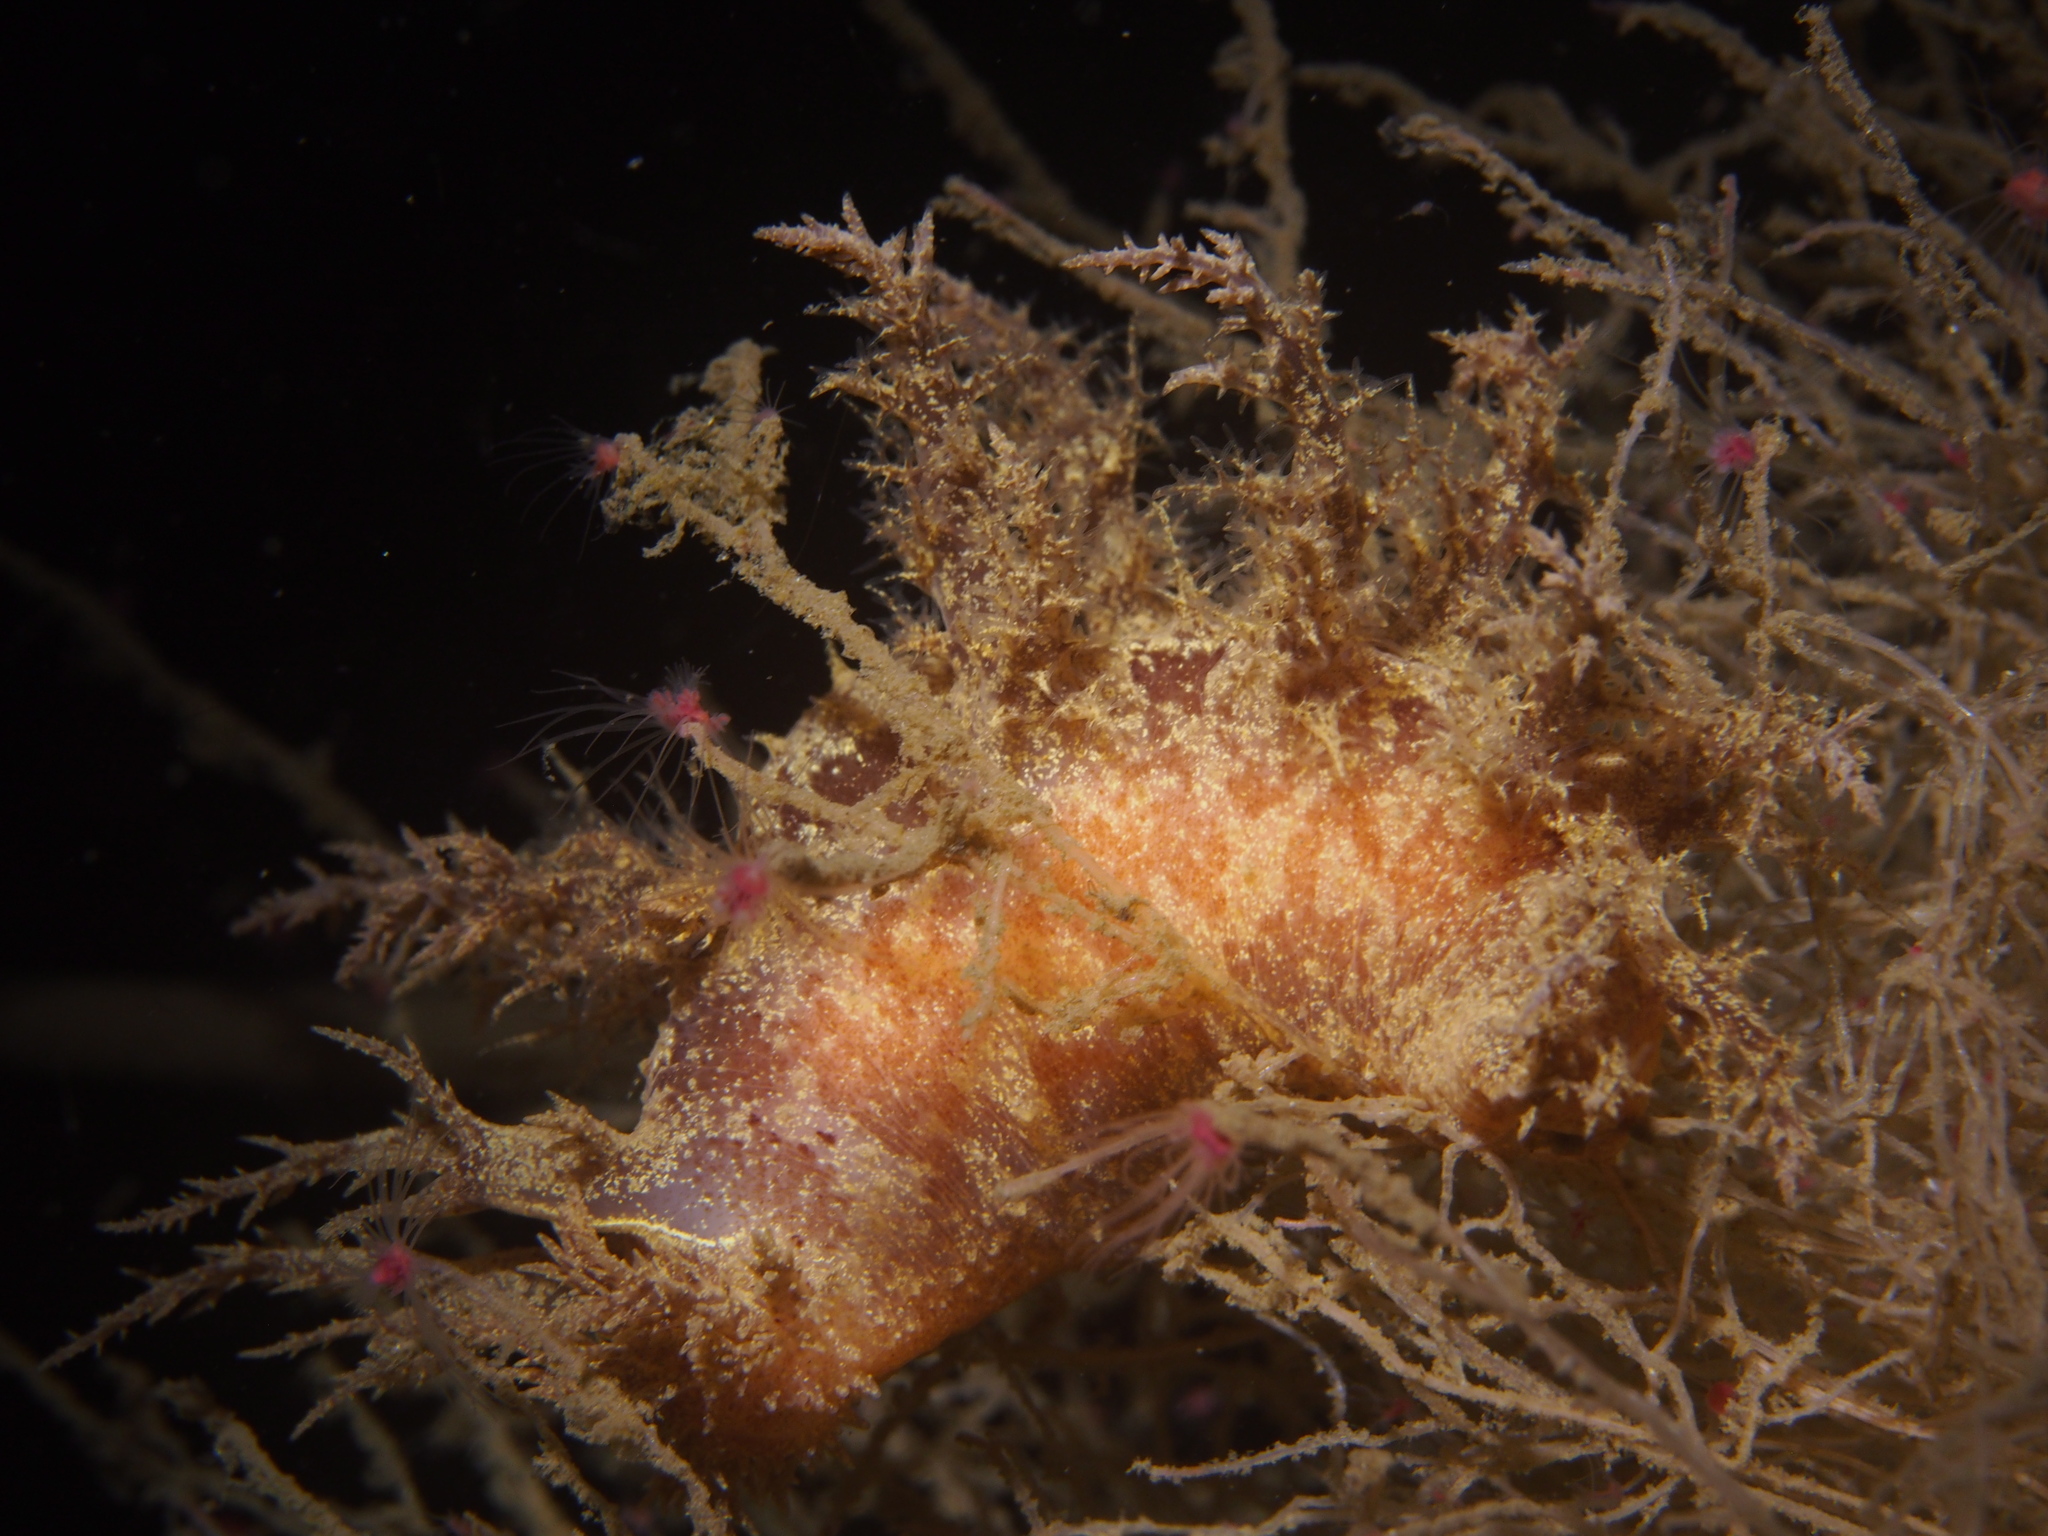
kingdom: Animalia
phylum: Mollusca
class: Gastropoda
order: Nudibranchia
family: Dendronotidae
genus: Dendronotus
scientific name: Dendronotus europaeus
